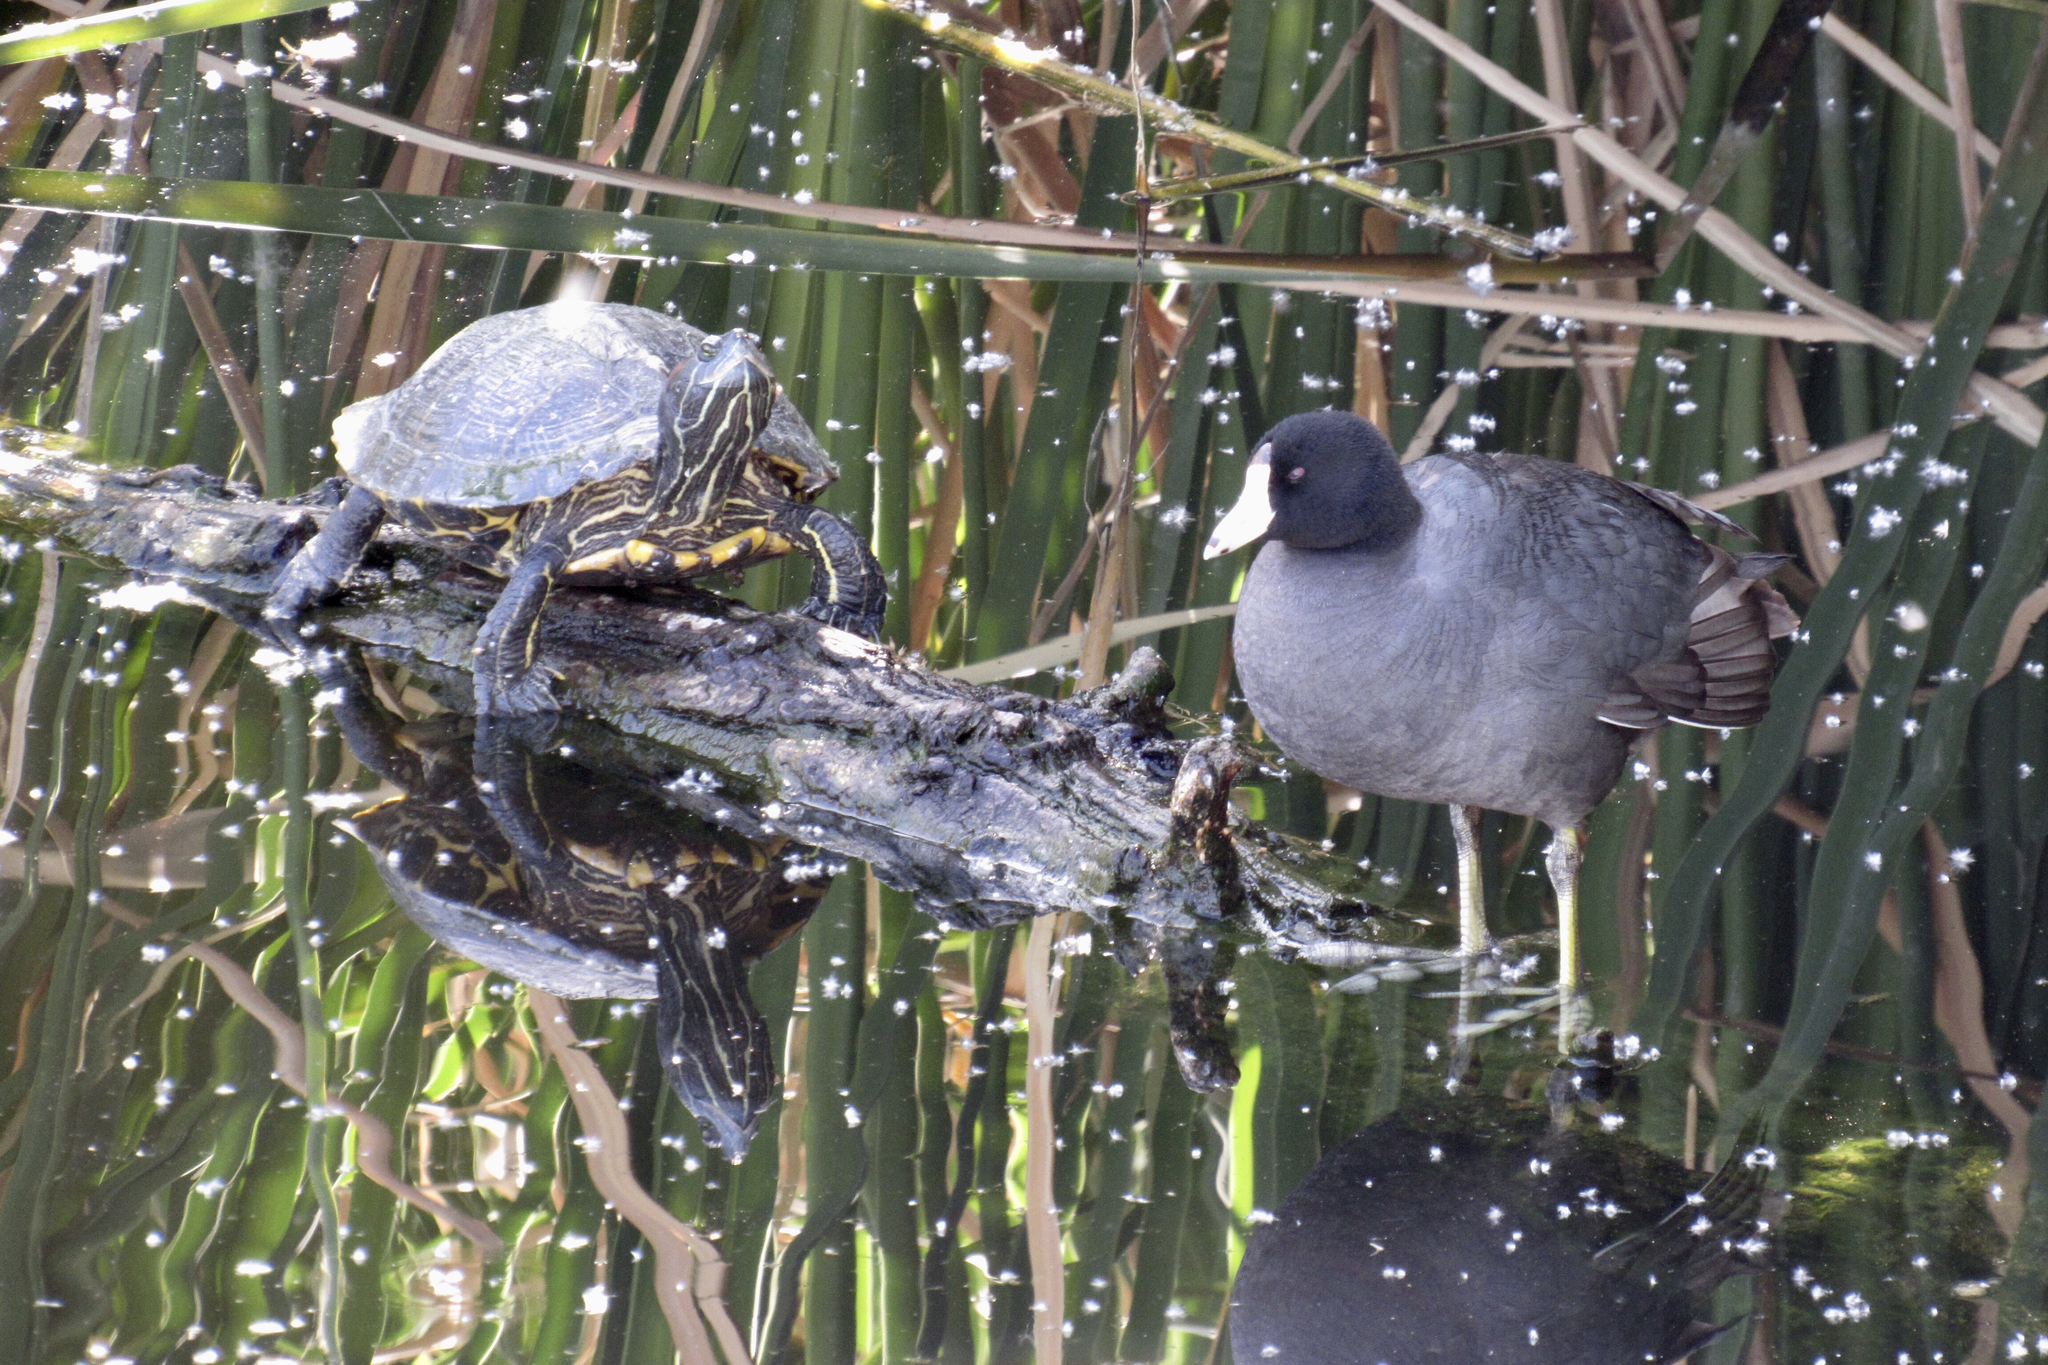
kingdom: Animalia
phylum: Chordata
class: Testudines
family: Emydidae
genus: Trachemys
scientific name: Trachemys scripta
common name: Slider
